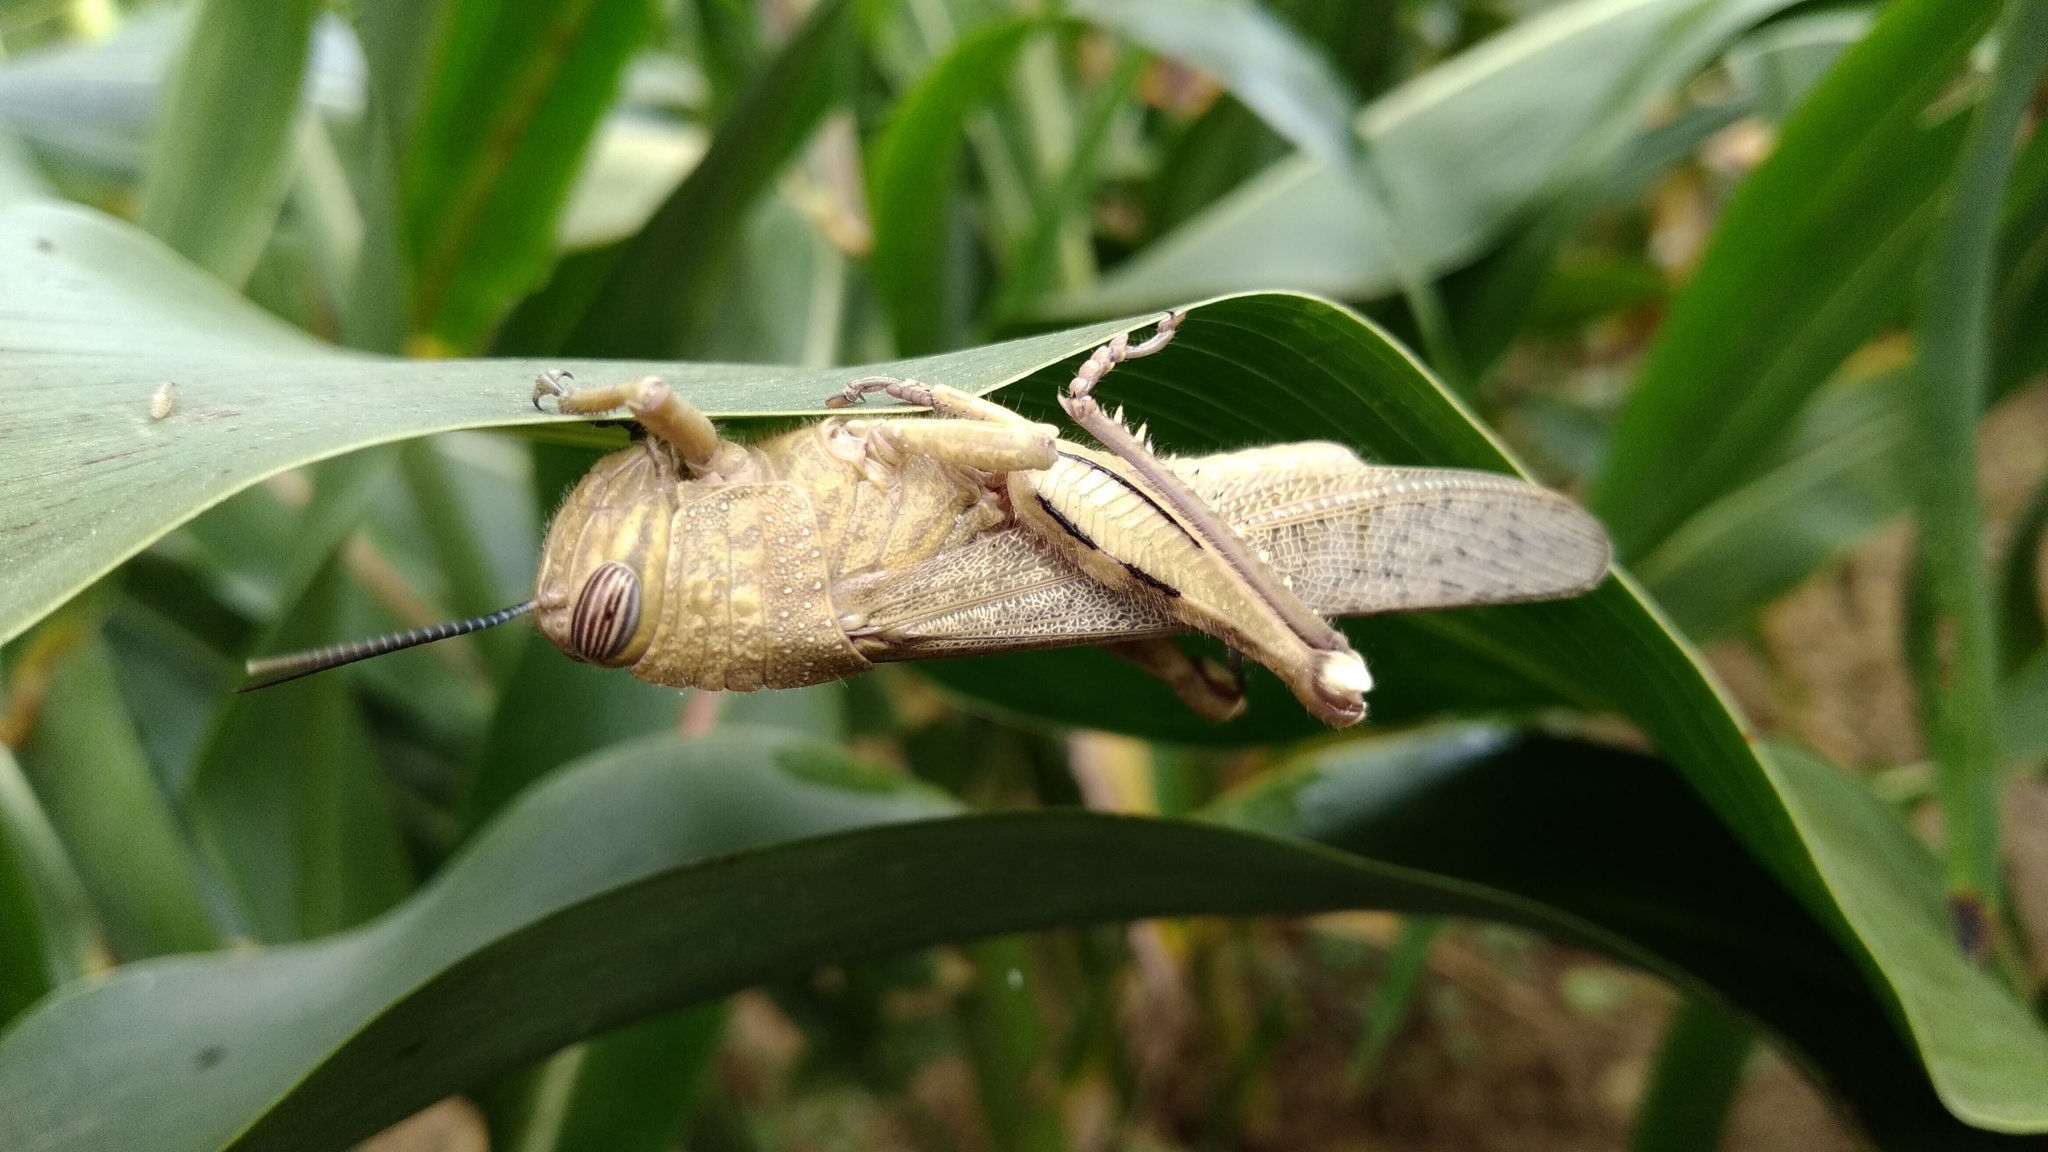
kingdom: Animalia
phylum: Arthropoda
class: Insecta
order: Orthoptera
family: Acrididae
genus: Anacridium
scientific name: Anacridium aegyptium
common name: Egyptian grasshopper
